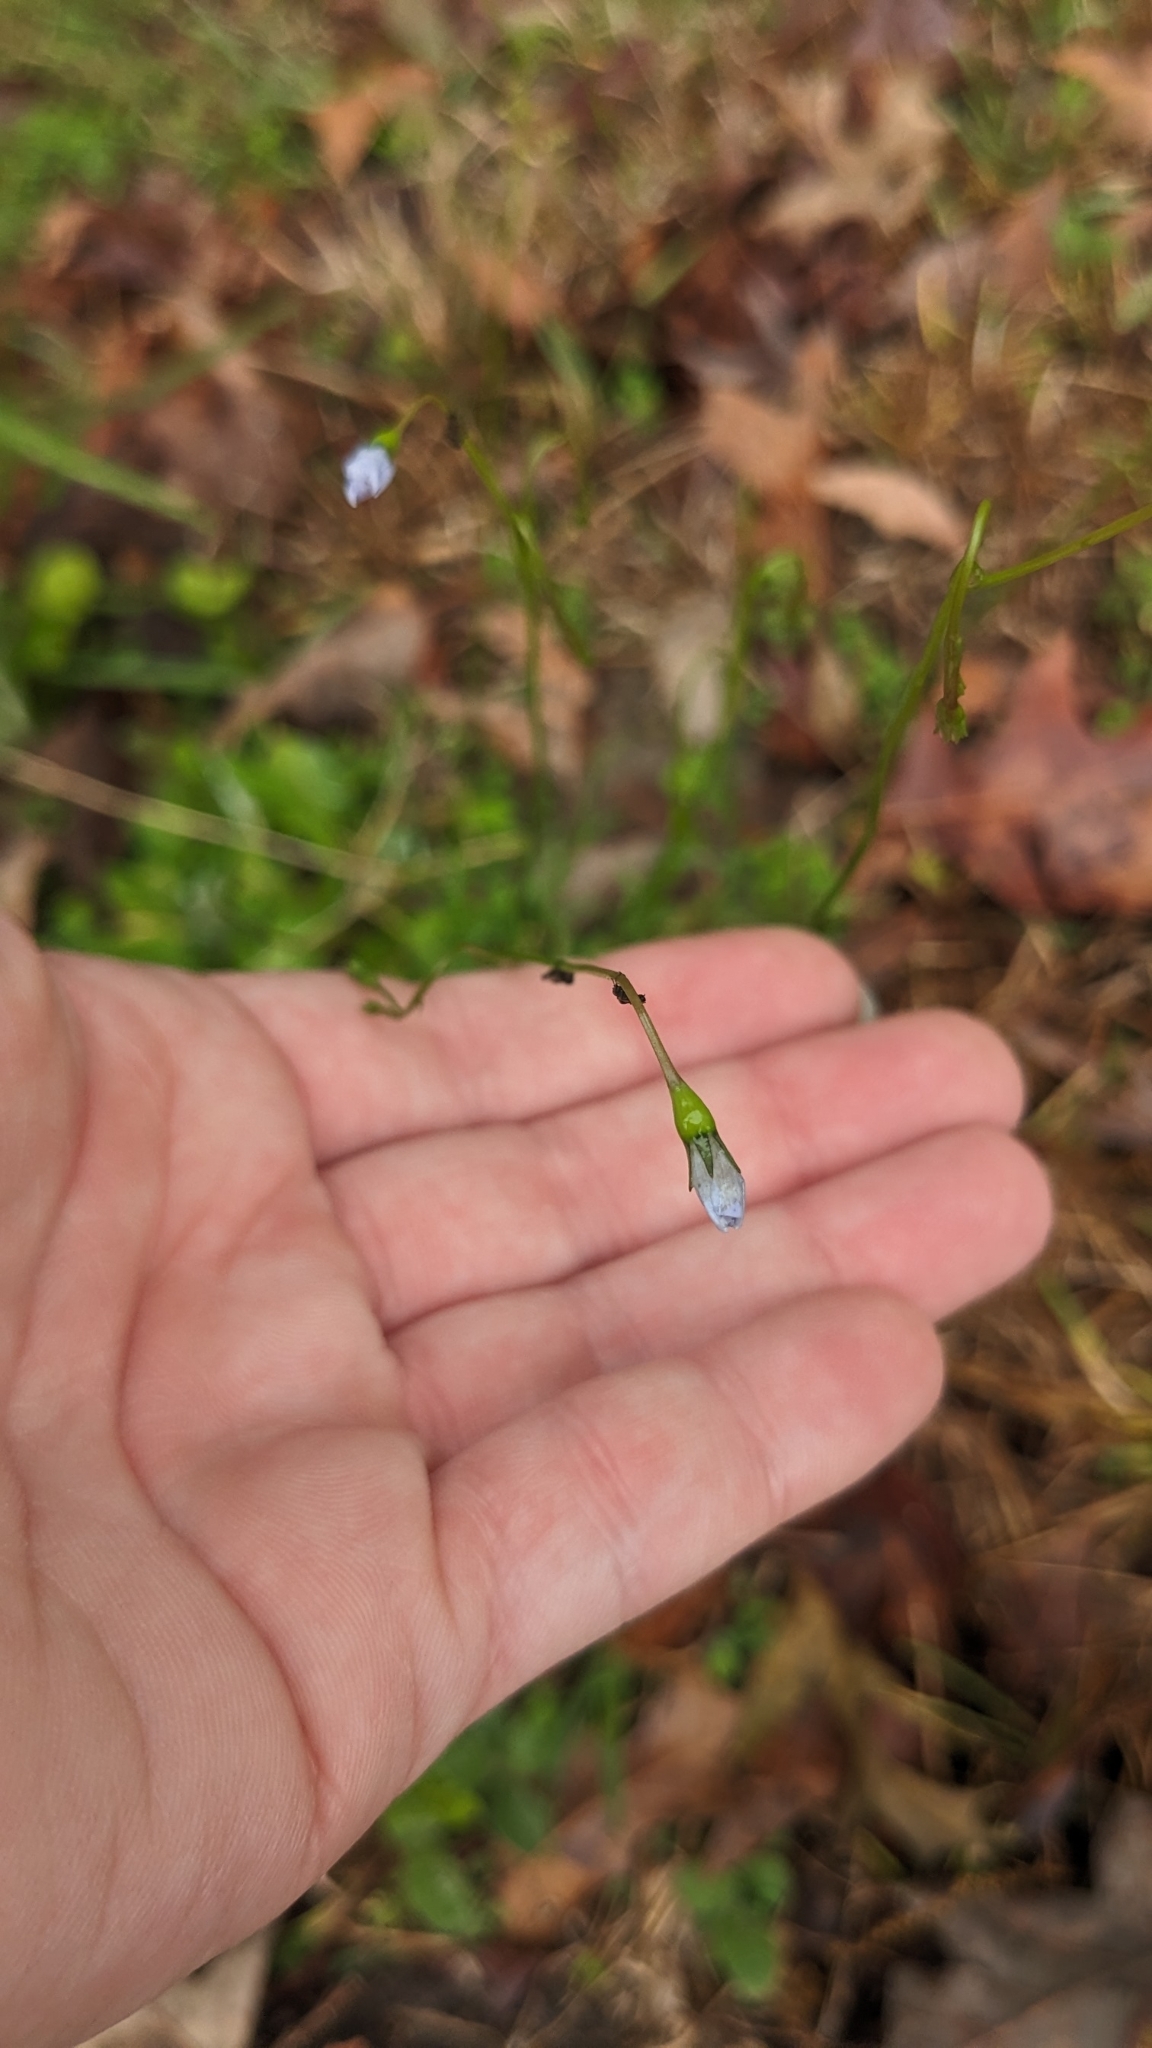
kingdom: Plantae
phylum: Tracheophyta
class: Magnoliopsida
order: Asterales
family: Campanulaceae
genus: Wahlenbergia
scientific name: Wahlenbergia marginata
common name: Southern rockbell
